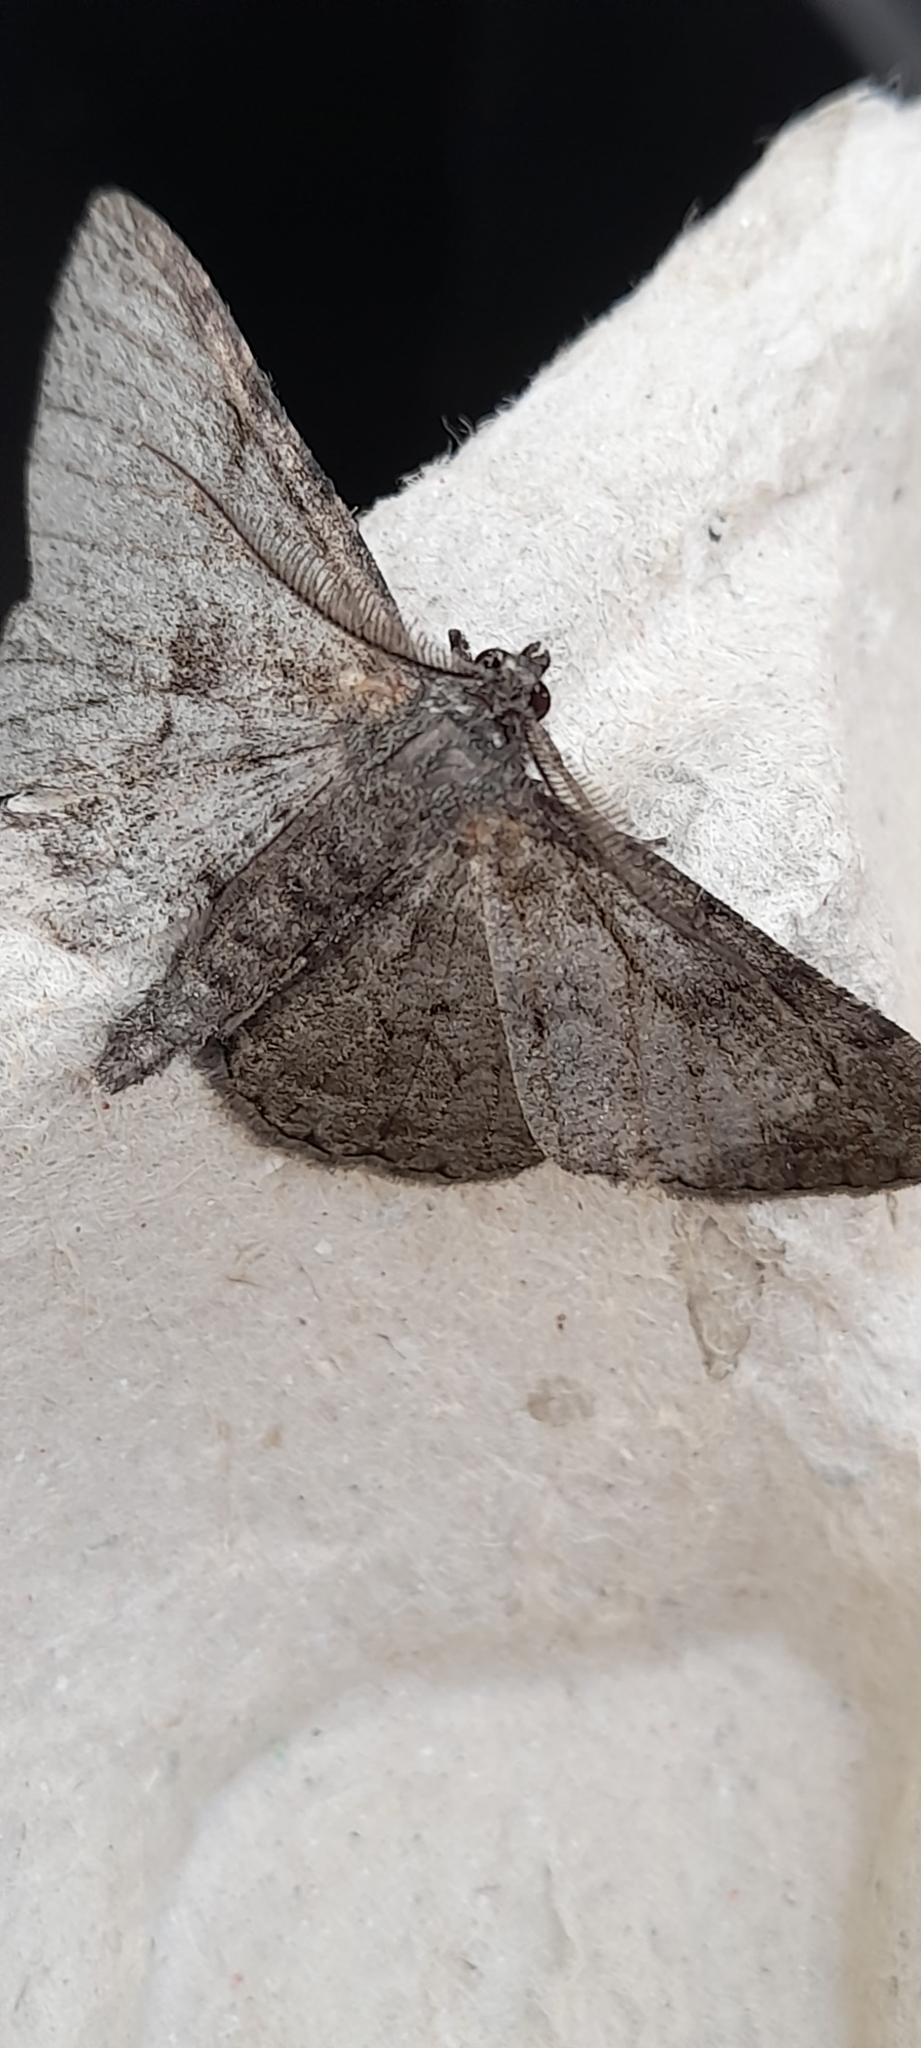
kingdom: Animalia
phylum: Arthropoda
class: Insecta
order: Lepidoptera
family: Geometridae
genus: Peribatodes
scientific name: Peribatodes rhomboidaria
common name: Willow beauty
